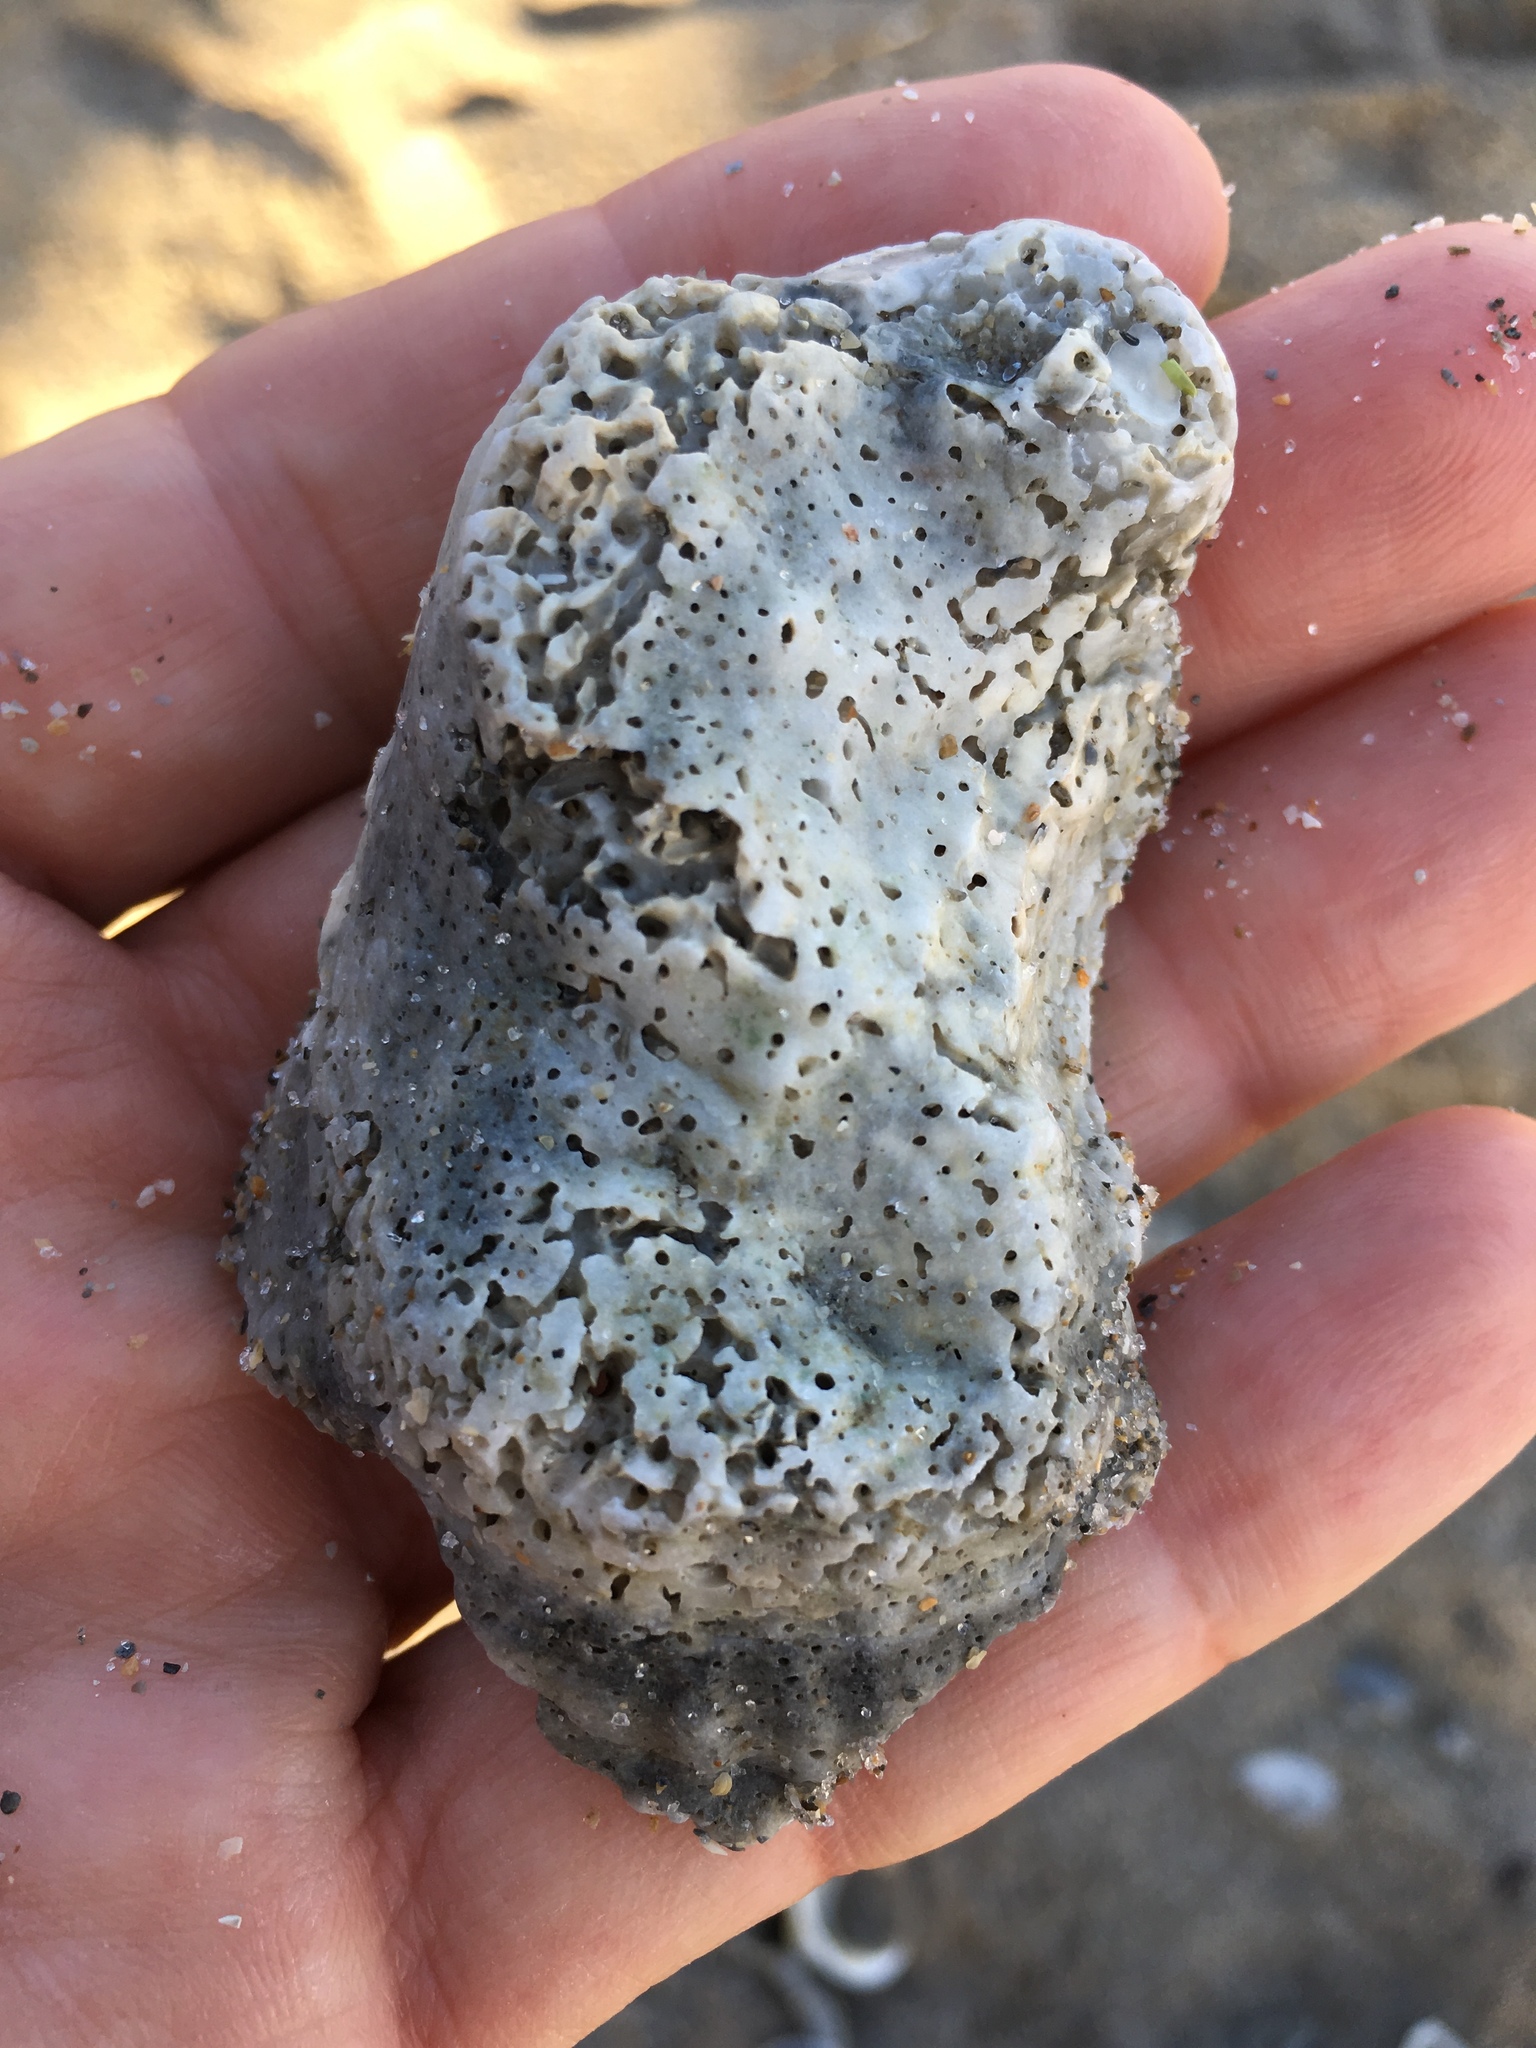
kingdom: Animalia
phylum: Mollusca
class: Bivalvia
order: Ostreida
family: Ostreidae
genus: Crassostrea
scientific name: Crassostrea virginica
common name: American oyster
